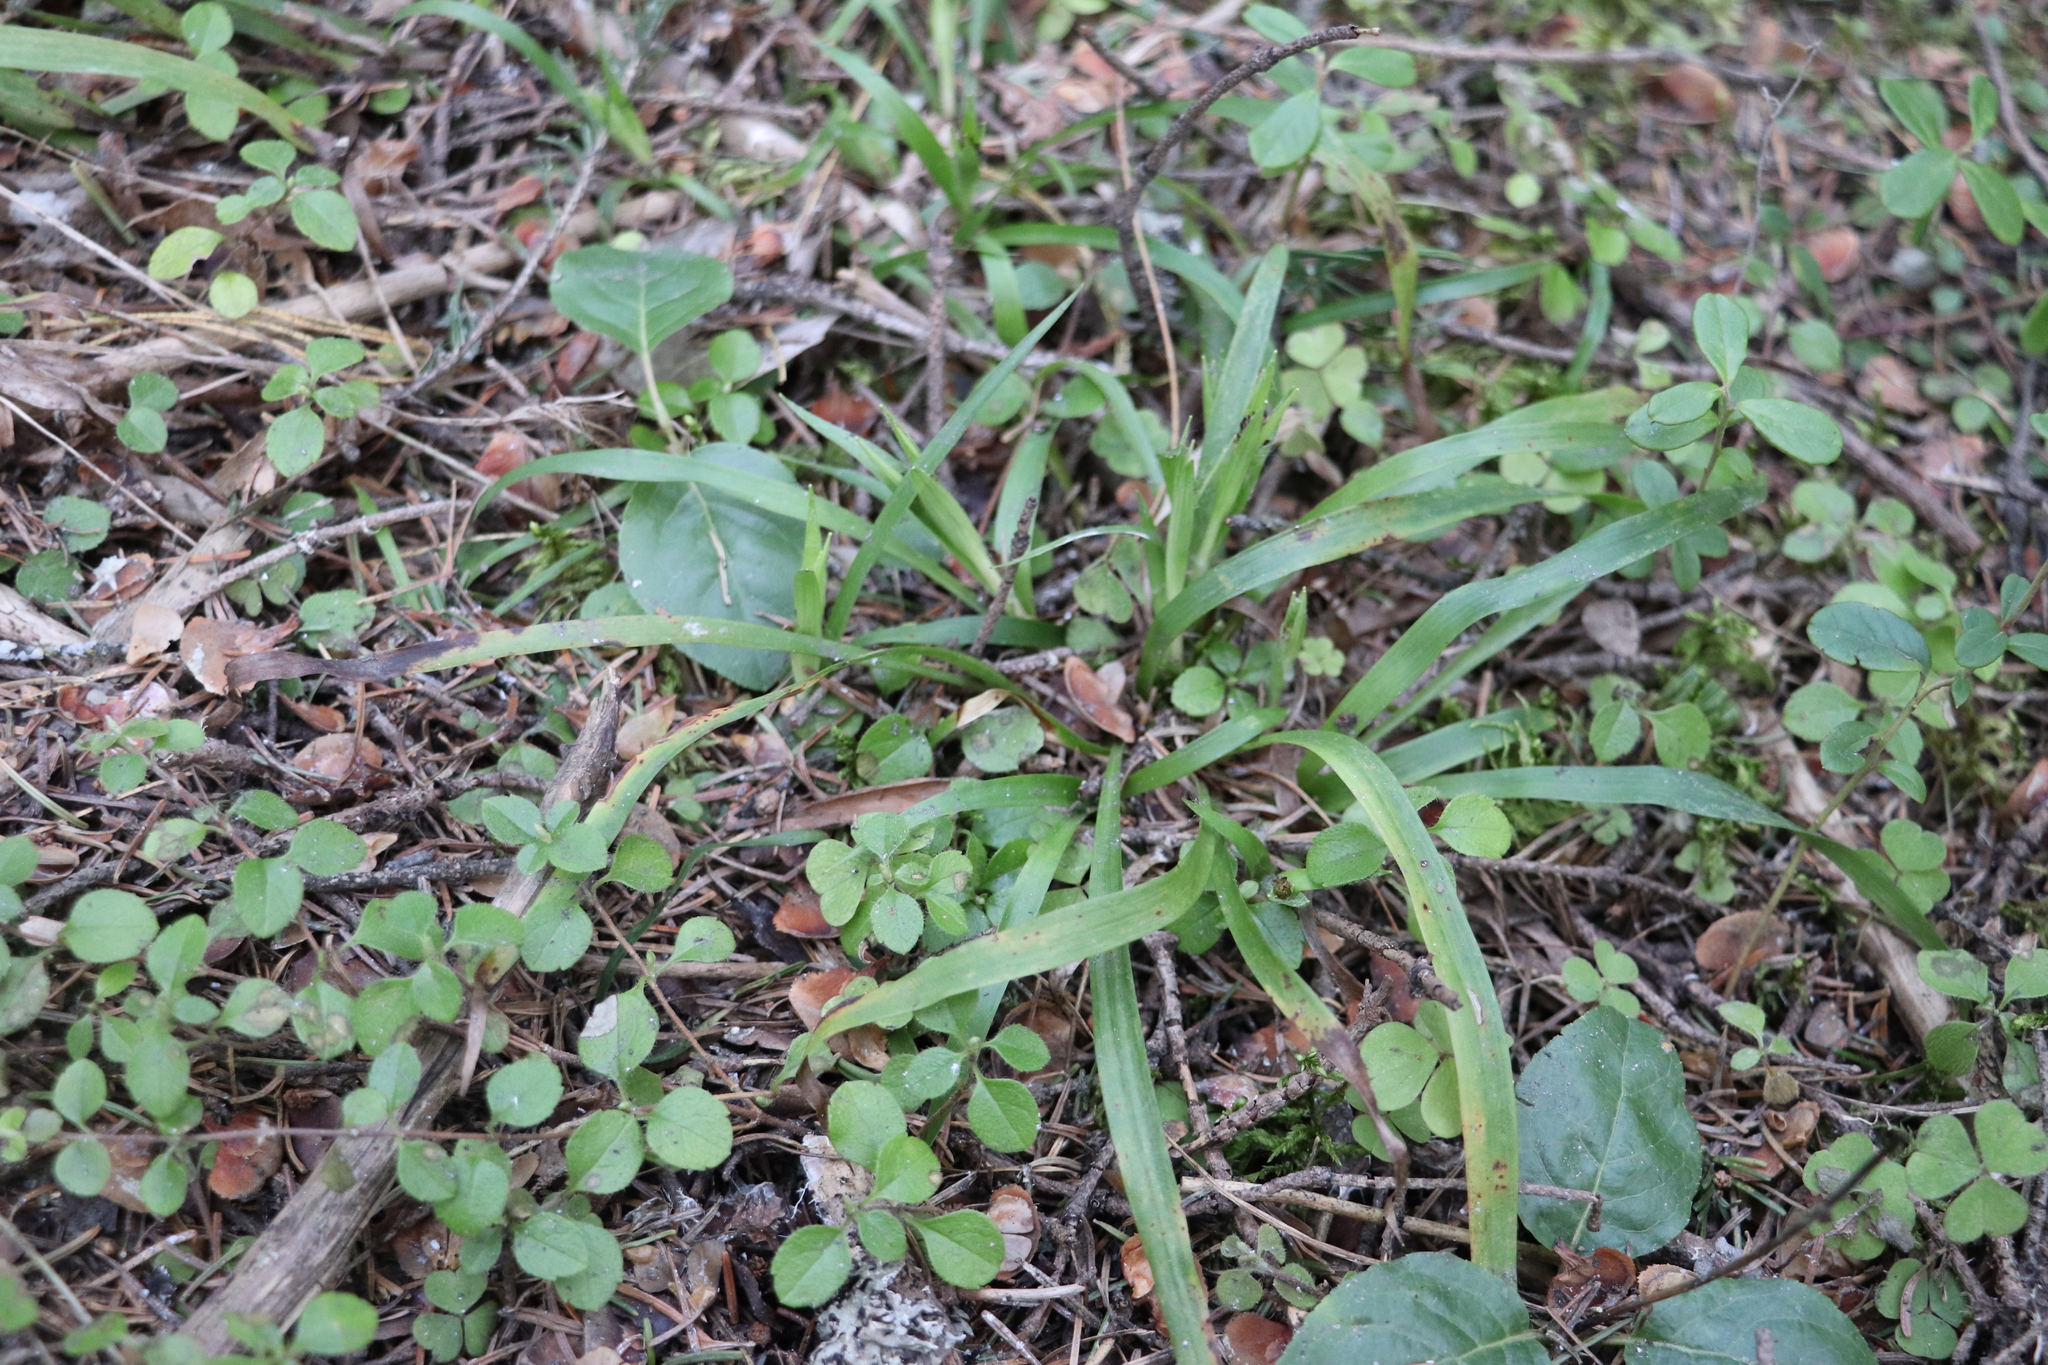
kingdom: Plantae
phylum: Tracheophyta
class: Liliopsida
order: Poales
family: Juncaceae
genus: Luzula
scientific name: Luzula pilosa
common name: Hairy wood-rush
